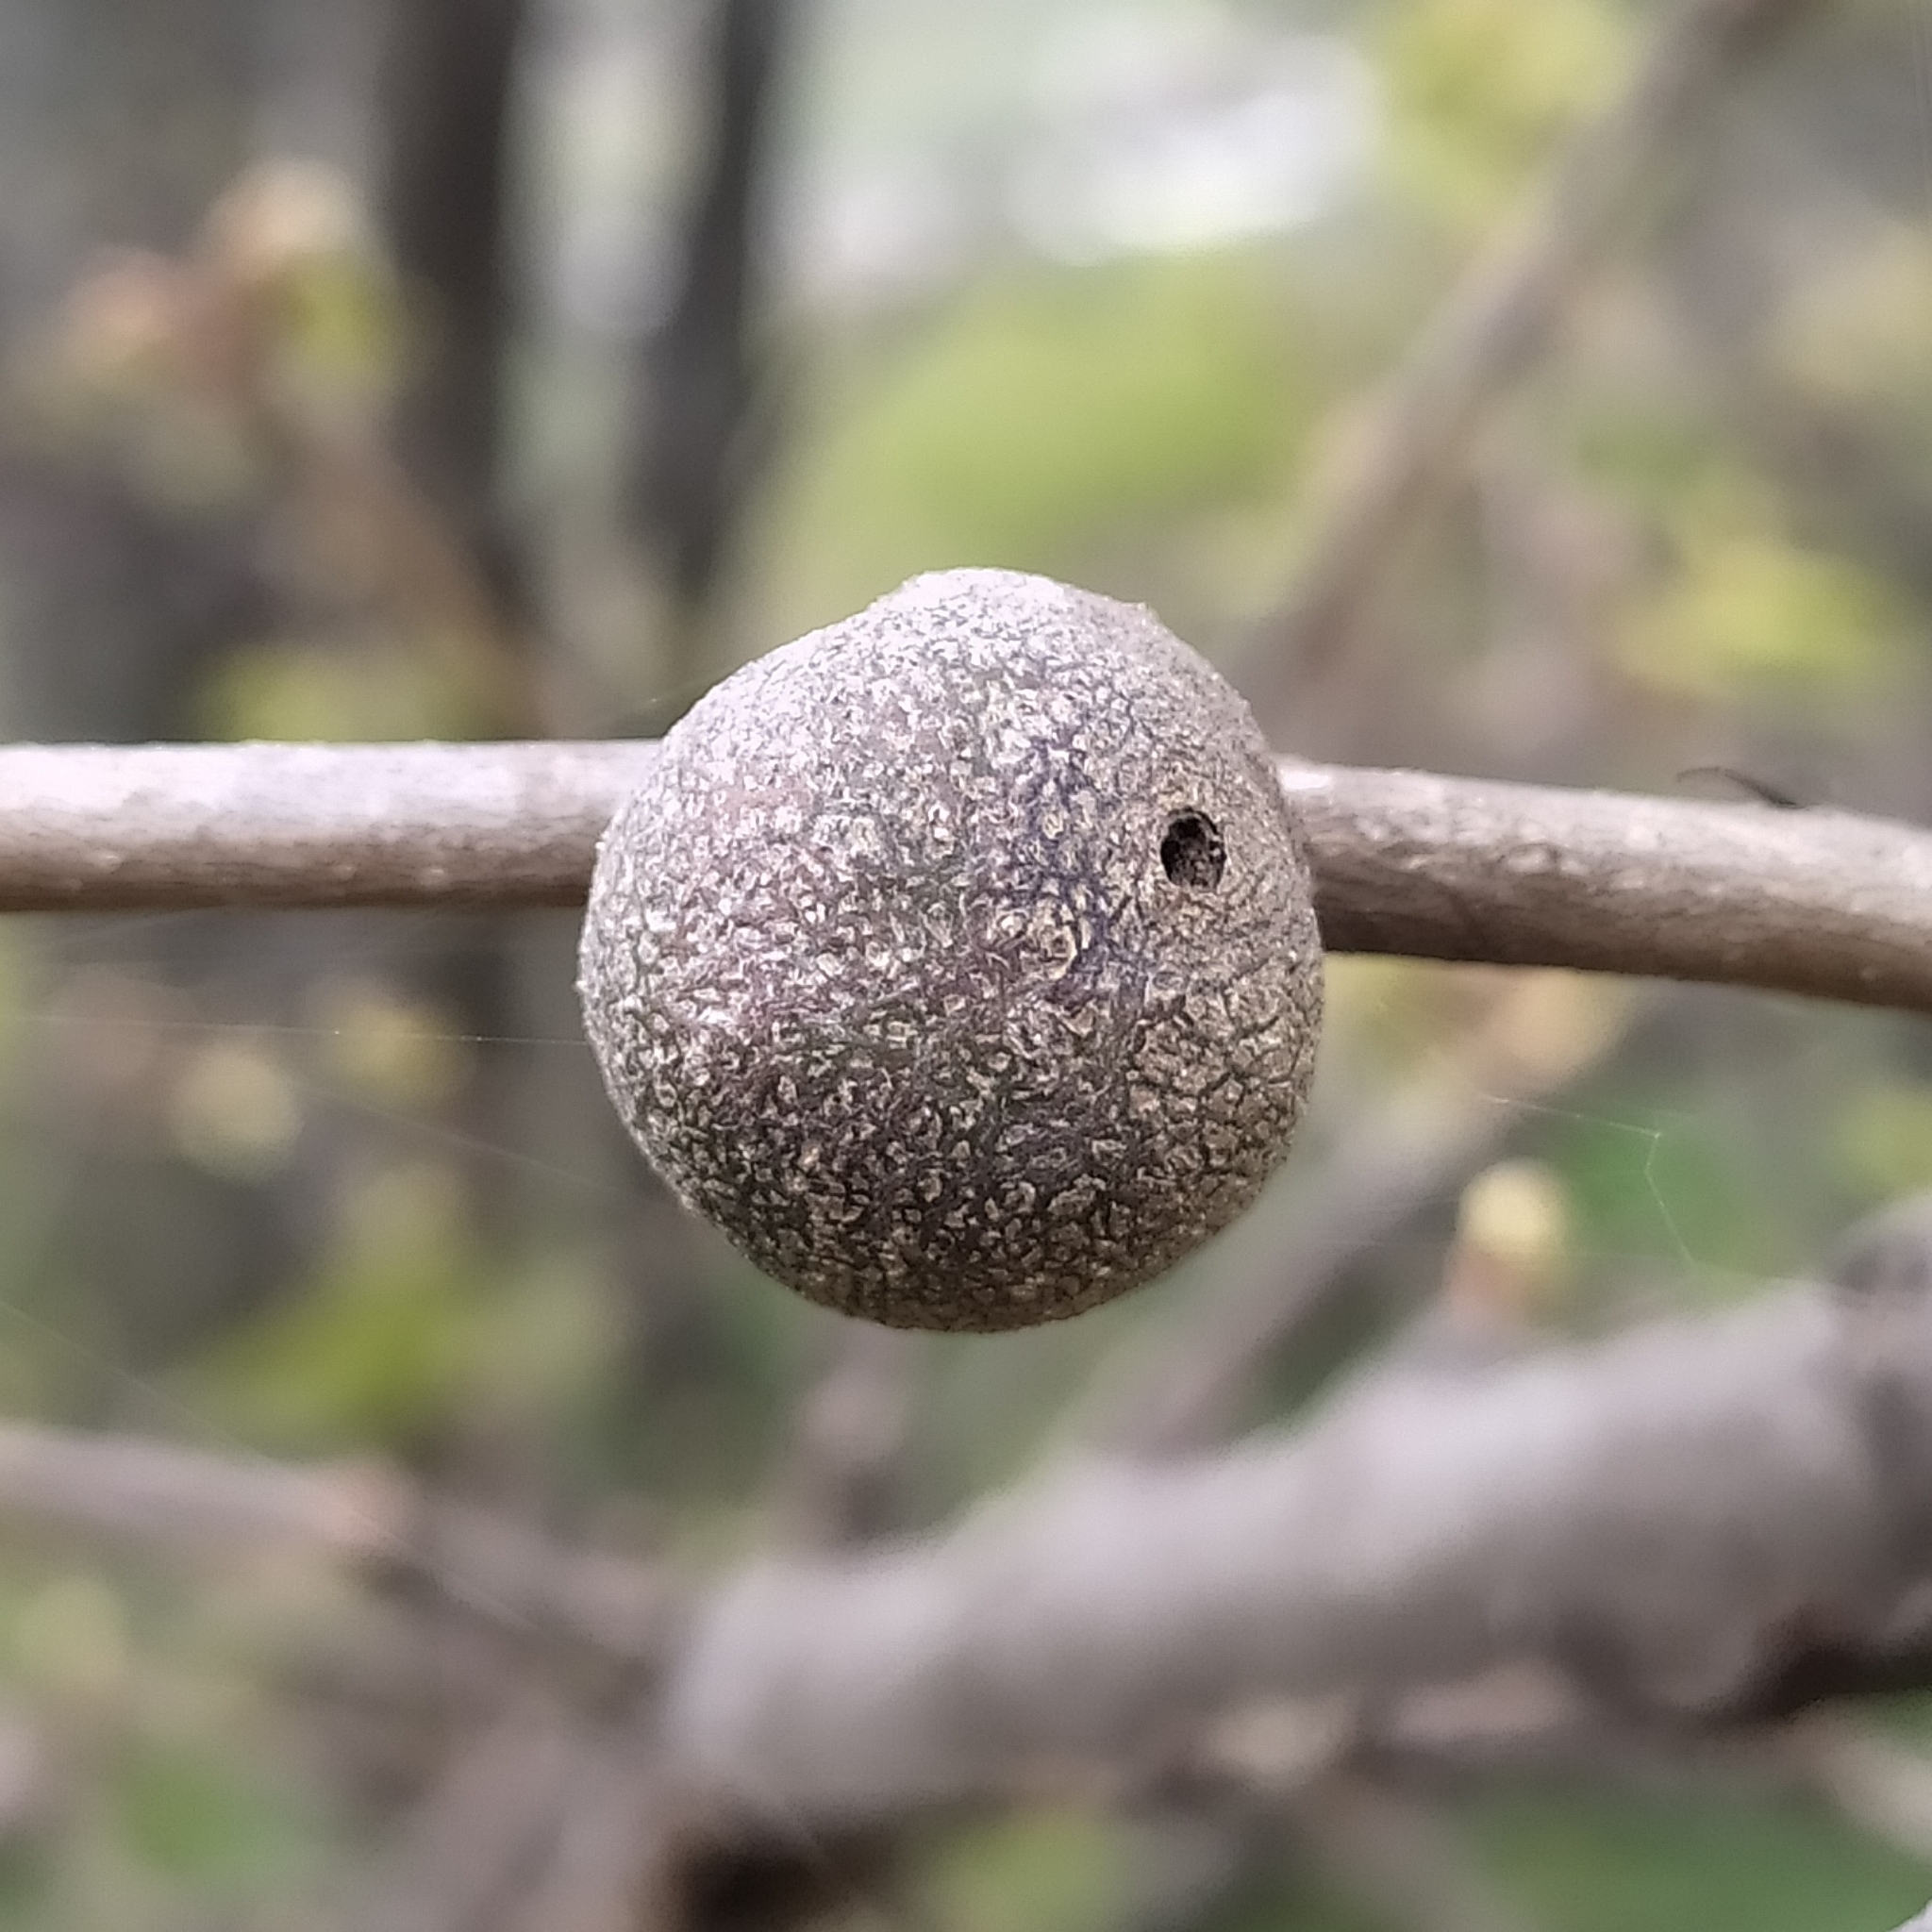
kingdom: Animalia
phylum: Arthropoda
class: Insecta
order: Hymenoptera
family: Cynipidae
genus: Synophrus
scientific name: Synophrus politus
